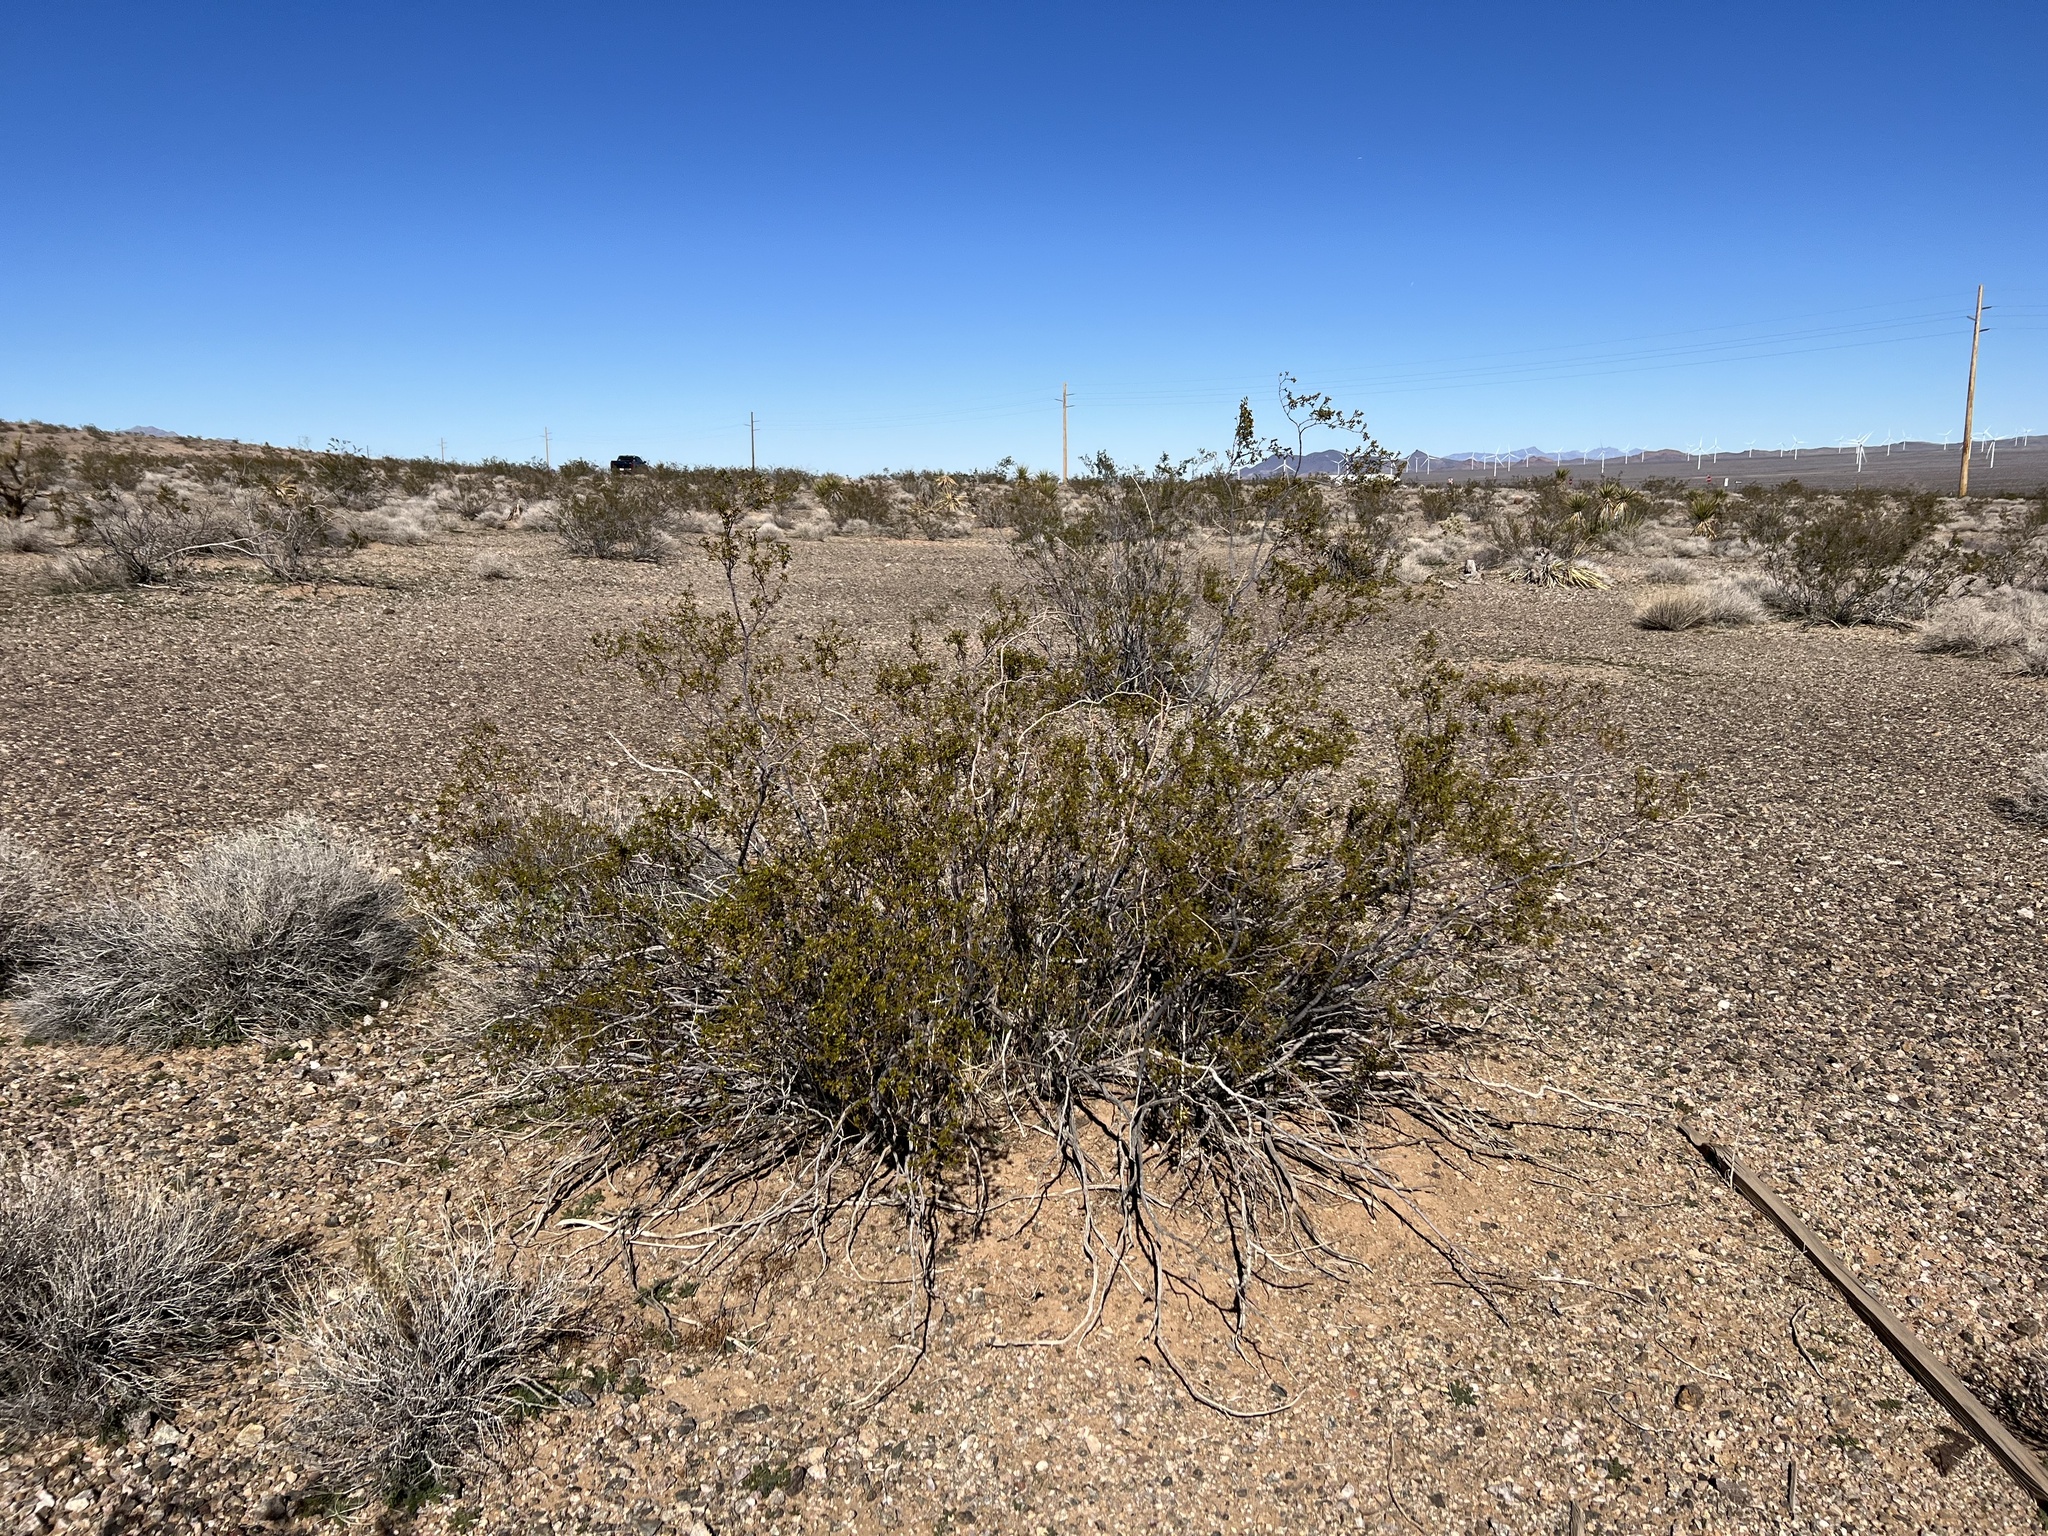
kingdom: Plantae
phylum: Tracheophyta
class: Magnoliopsida
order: Zygophyllales
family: Zygophyllaceae
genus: Larrea
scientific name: Larrea tridentata
